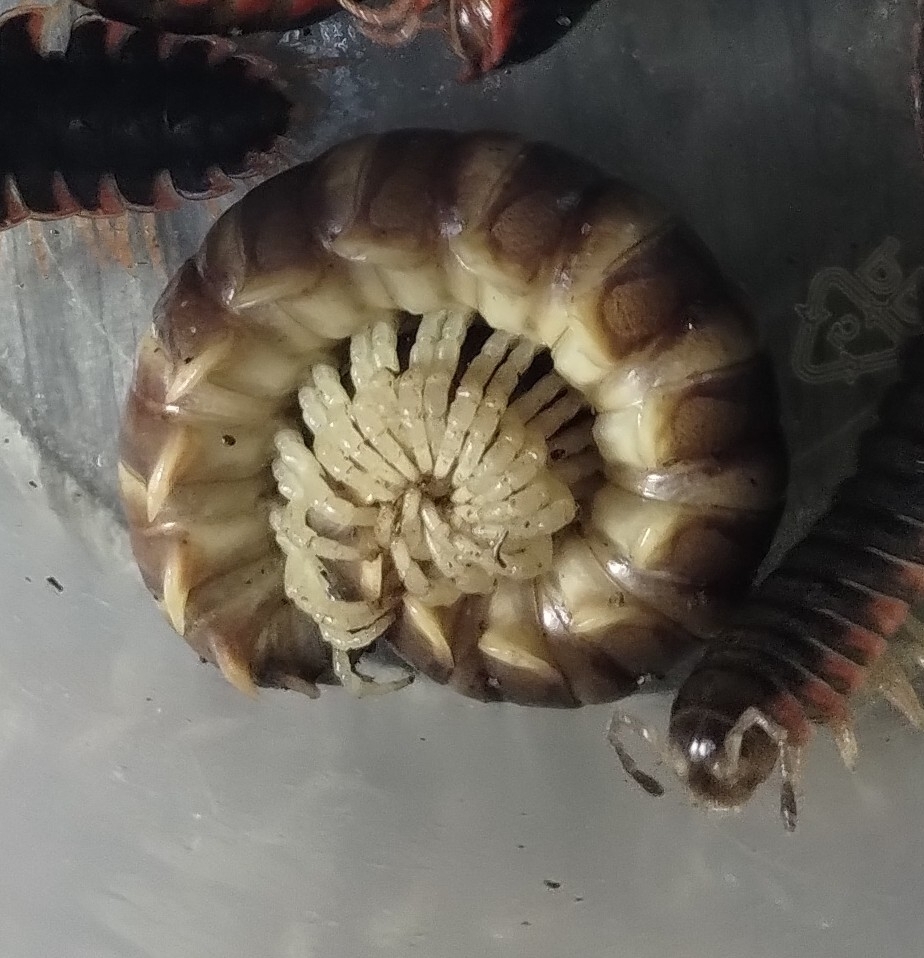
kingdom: Animalia
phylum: Arthropoda
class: Diplopoda
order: Polydesmida
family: Xystodesmidae
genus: Pachydesmus
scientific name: Pachydesmus denticulatus
